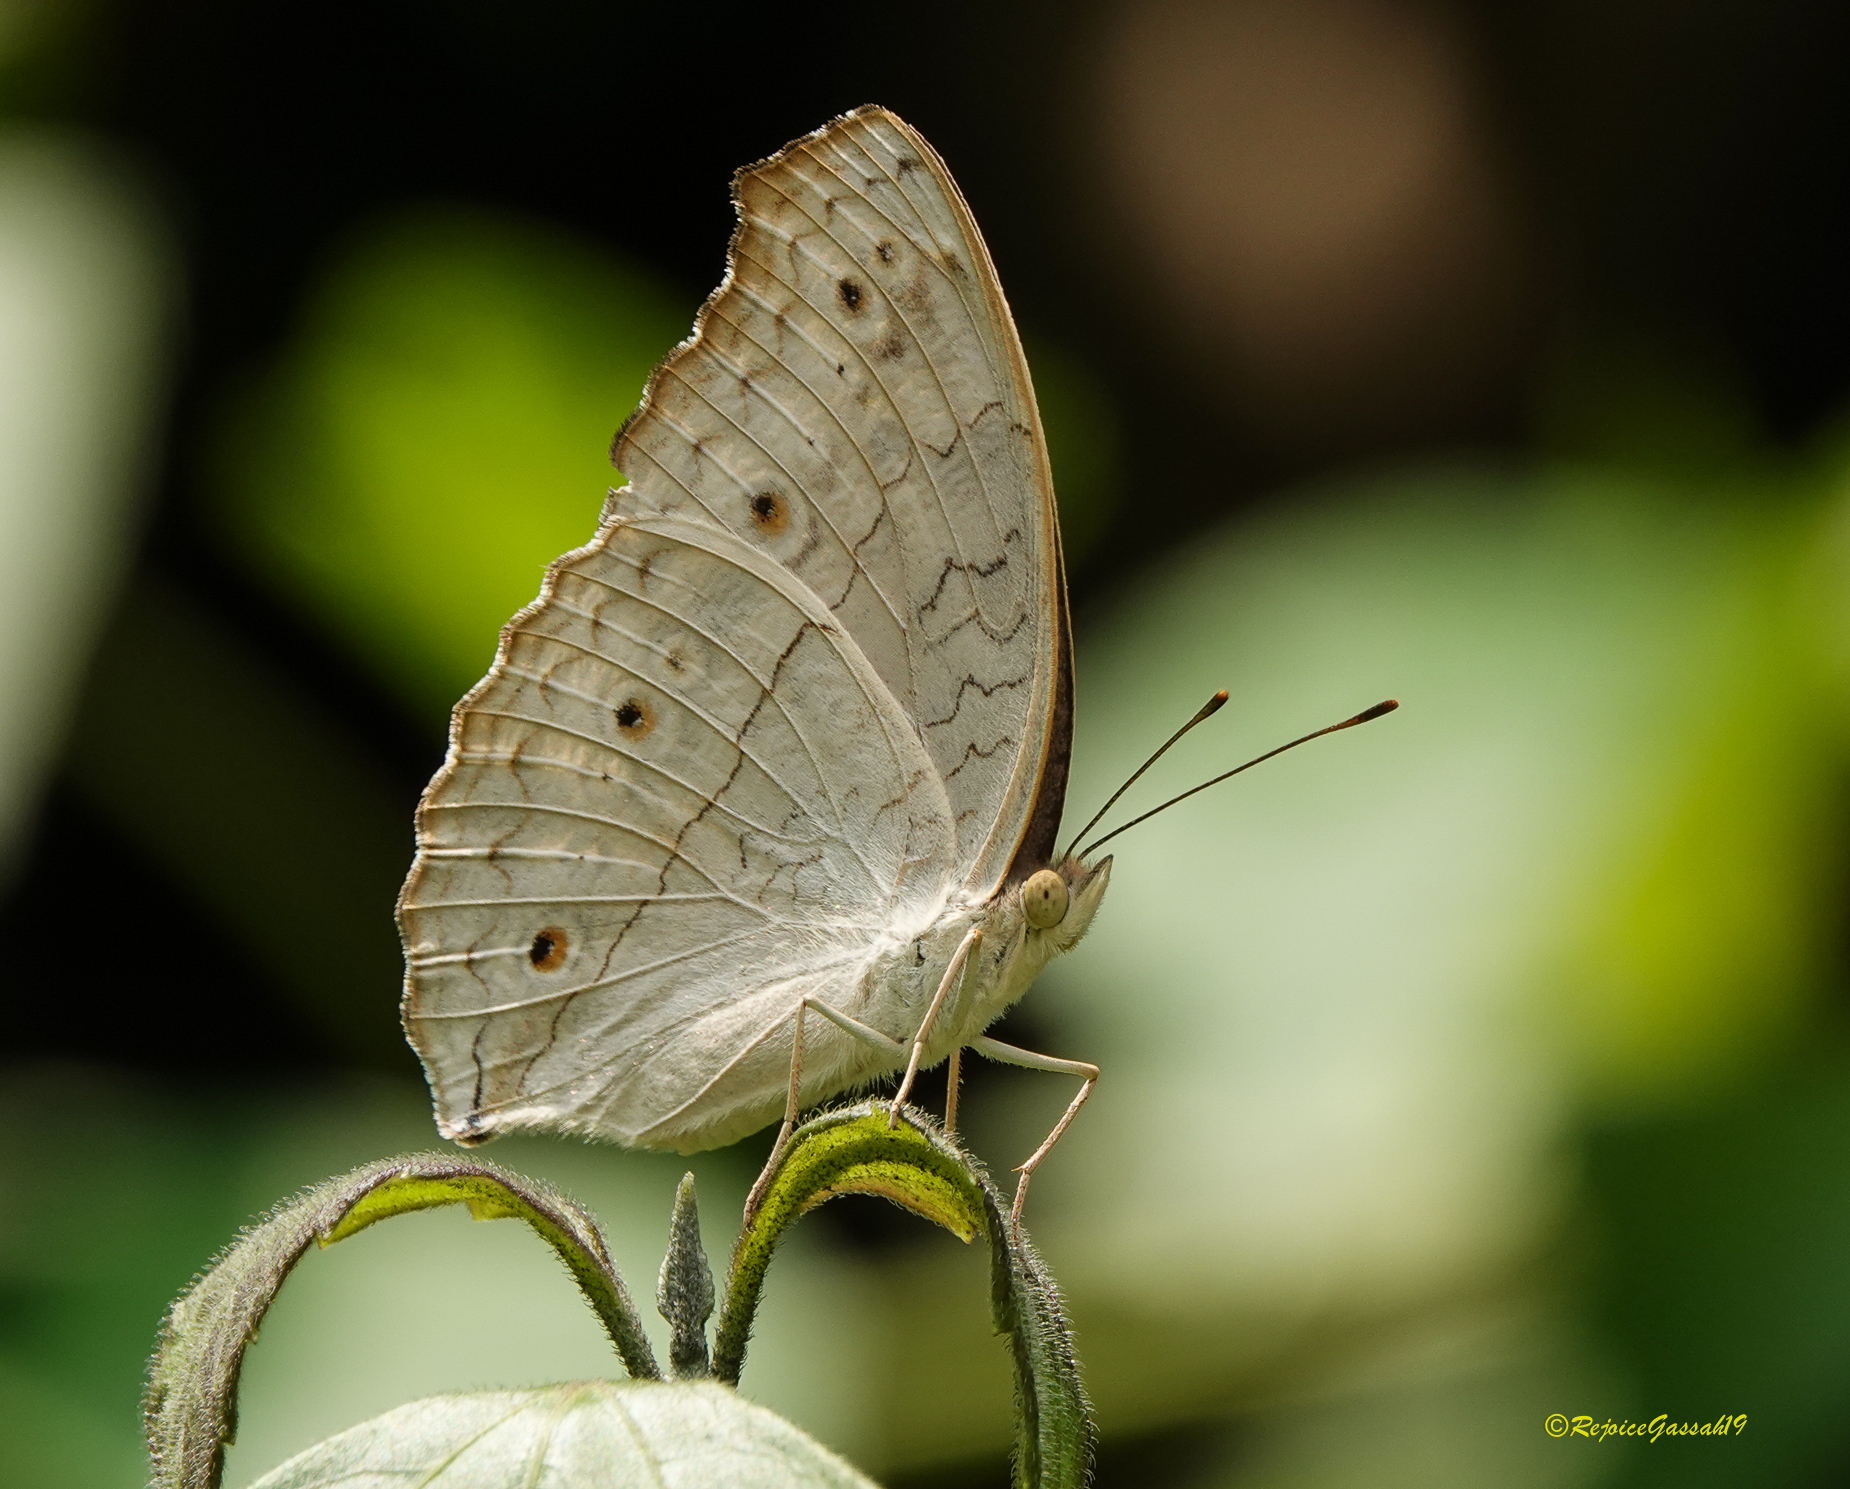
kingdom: Animalia
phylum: Arthropoda
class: Insecta
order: Lepidoptera
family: Nymphalidae
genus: Junonia
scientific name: Junonia atlites
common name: Grey pansy
